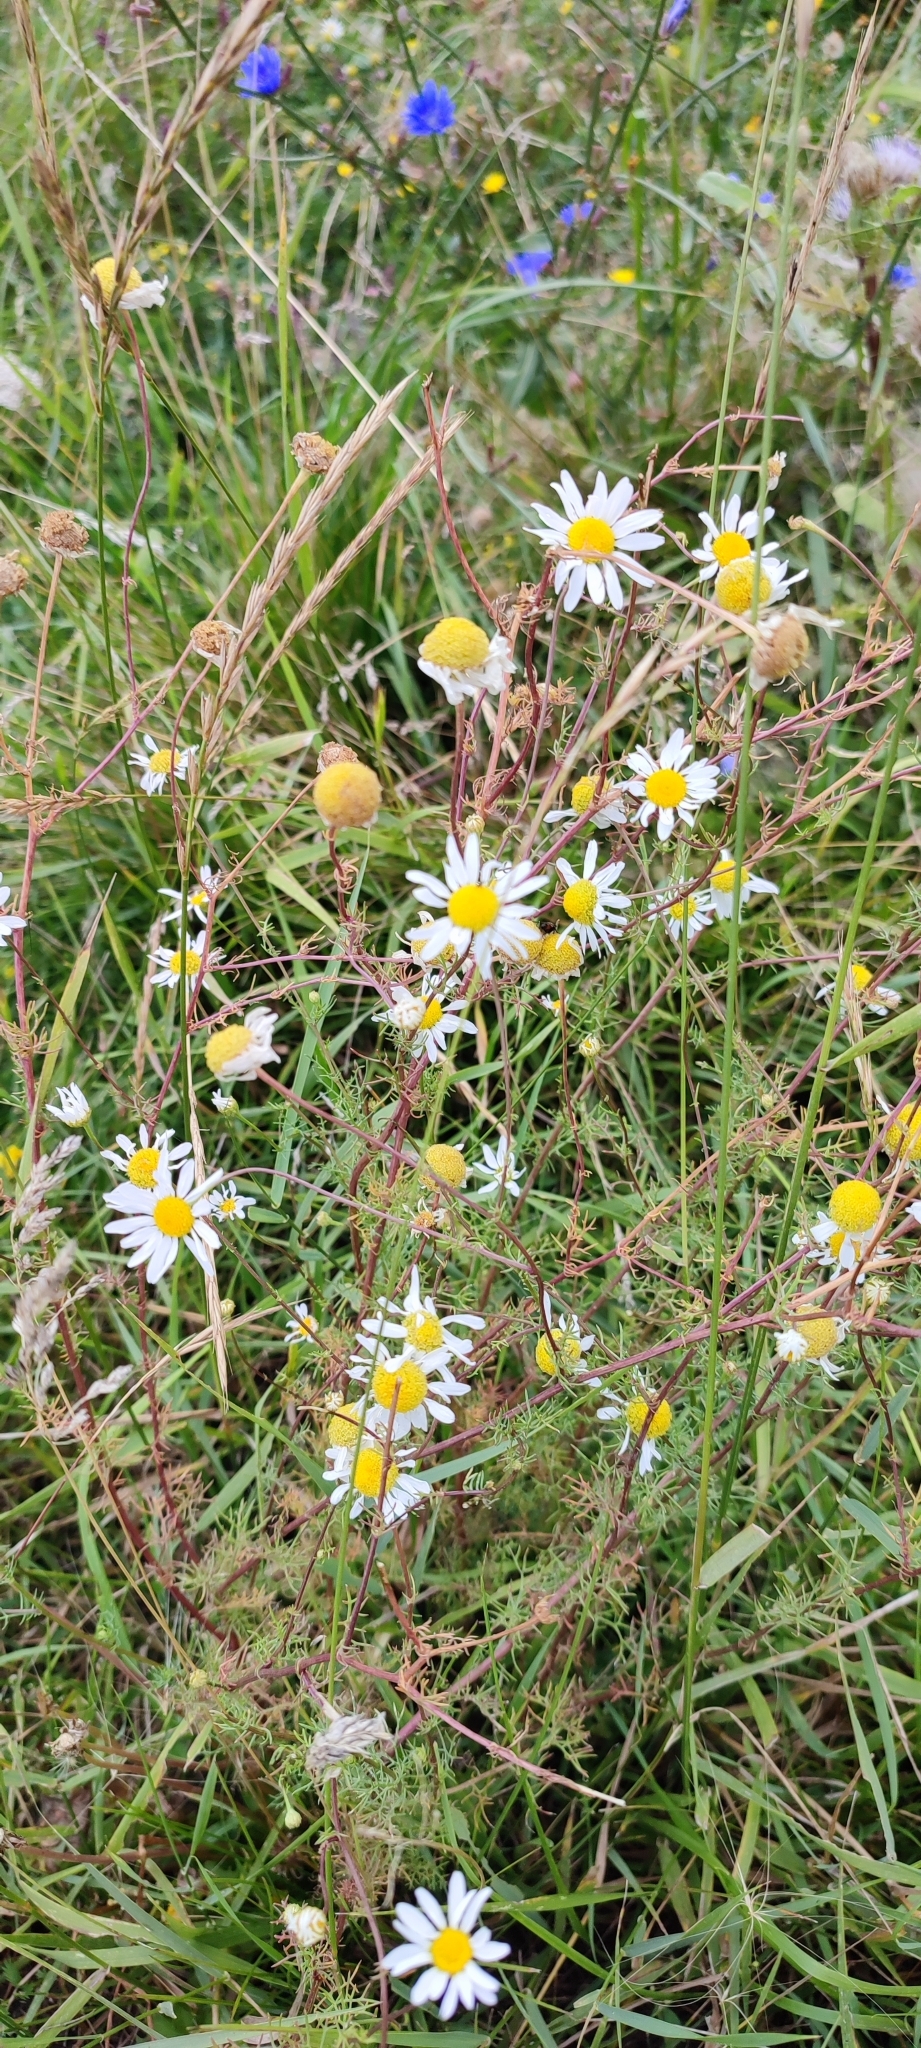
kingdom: Plantae
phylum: Tracheophyta
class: Magnoliopsida
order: Asterales
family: Asteraceae
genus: Tripleurospermum
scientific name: Tripleurospermum inodorum
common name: Scentless mayweed
